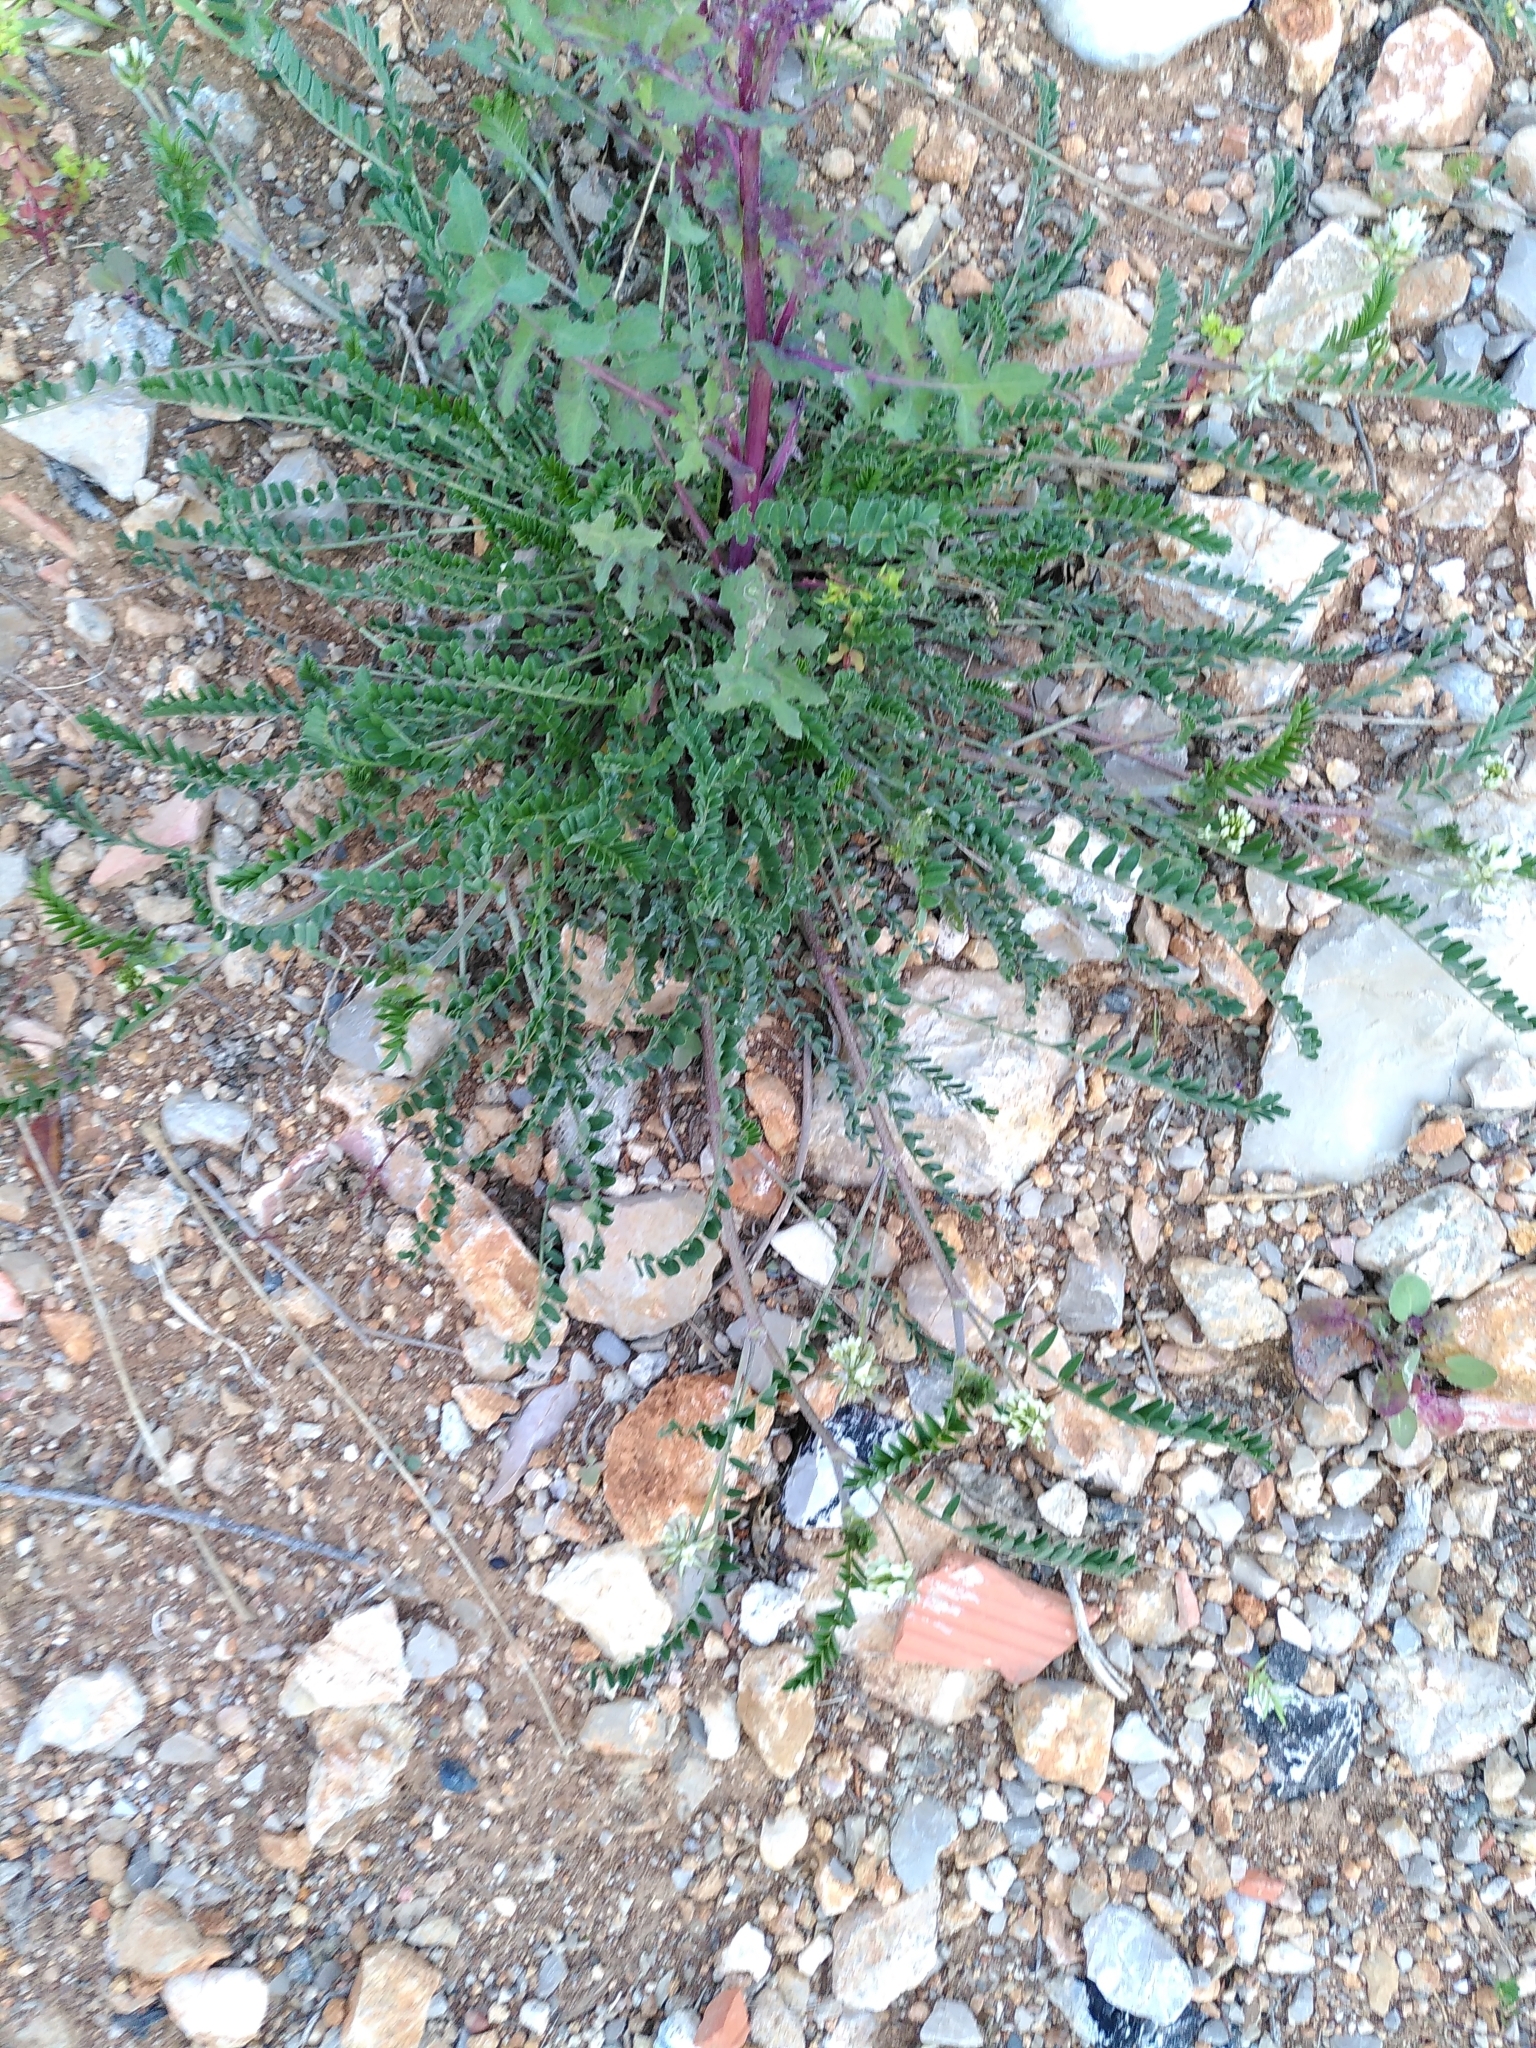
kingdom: Plantae
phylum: Tracheophyta
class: Magnoliopsida
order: Fabales
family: Fabaceae
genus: Astragalus
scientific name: Astragalus hamosus
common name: European milkvetch
